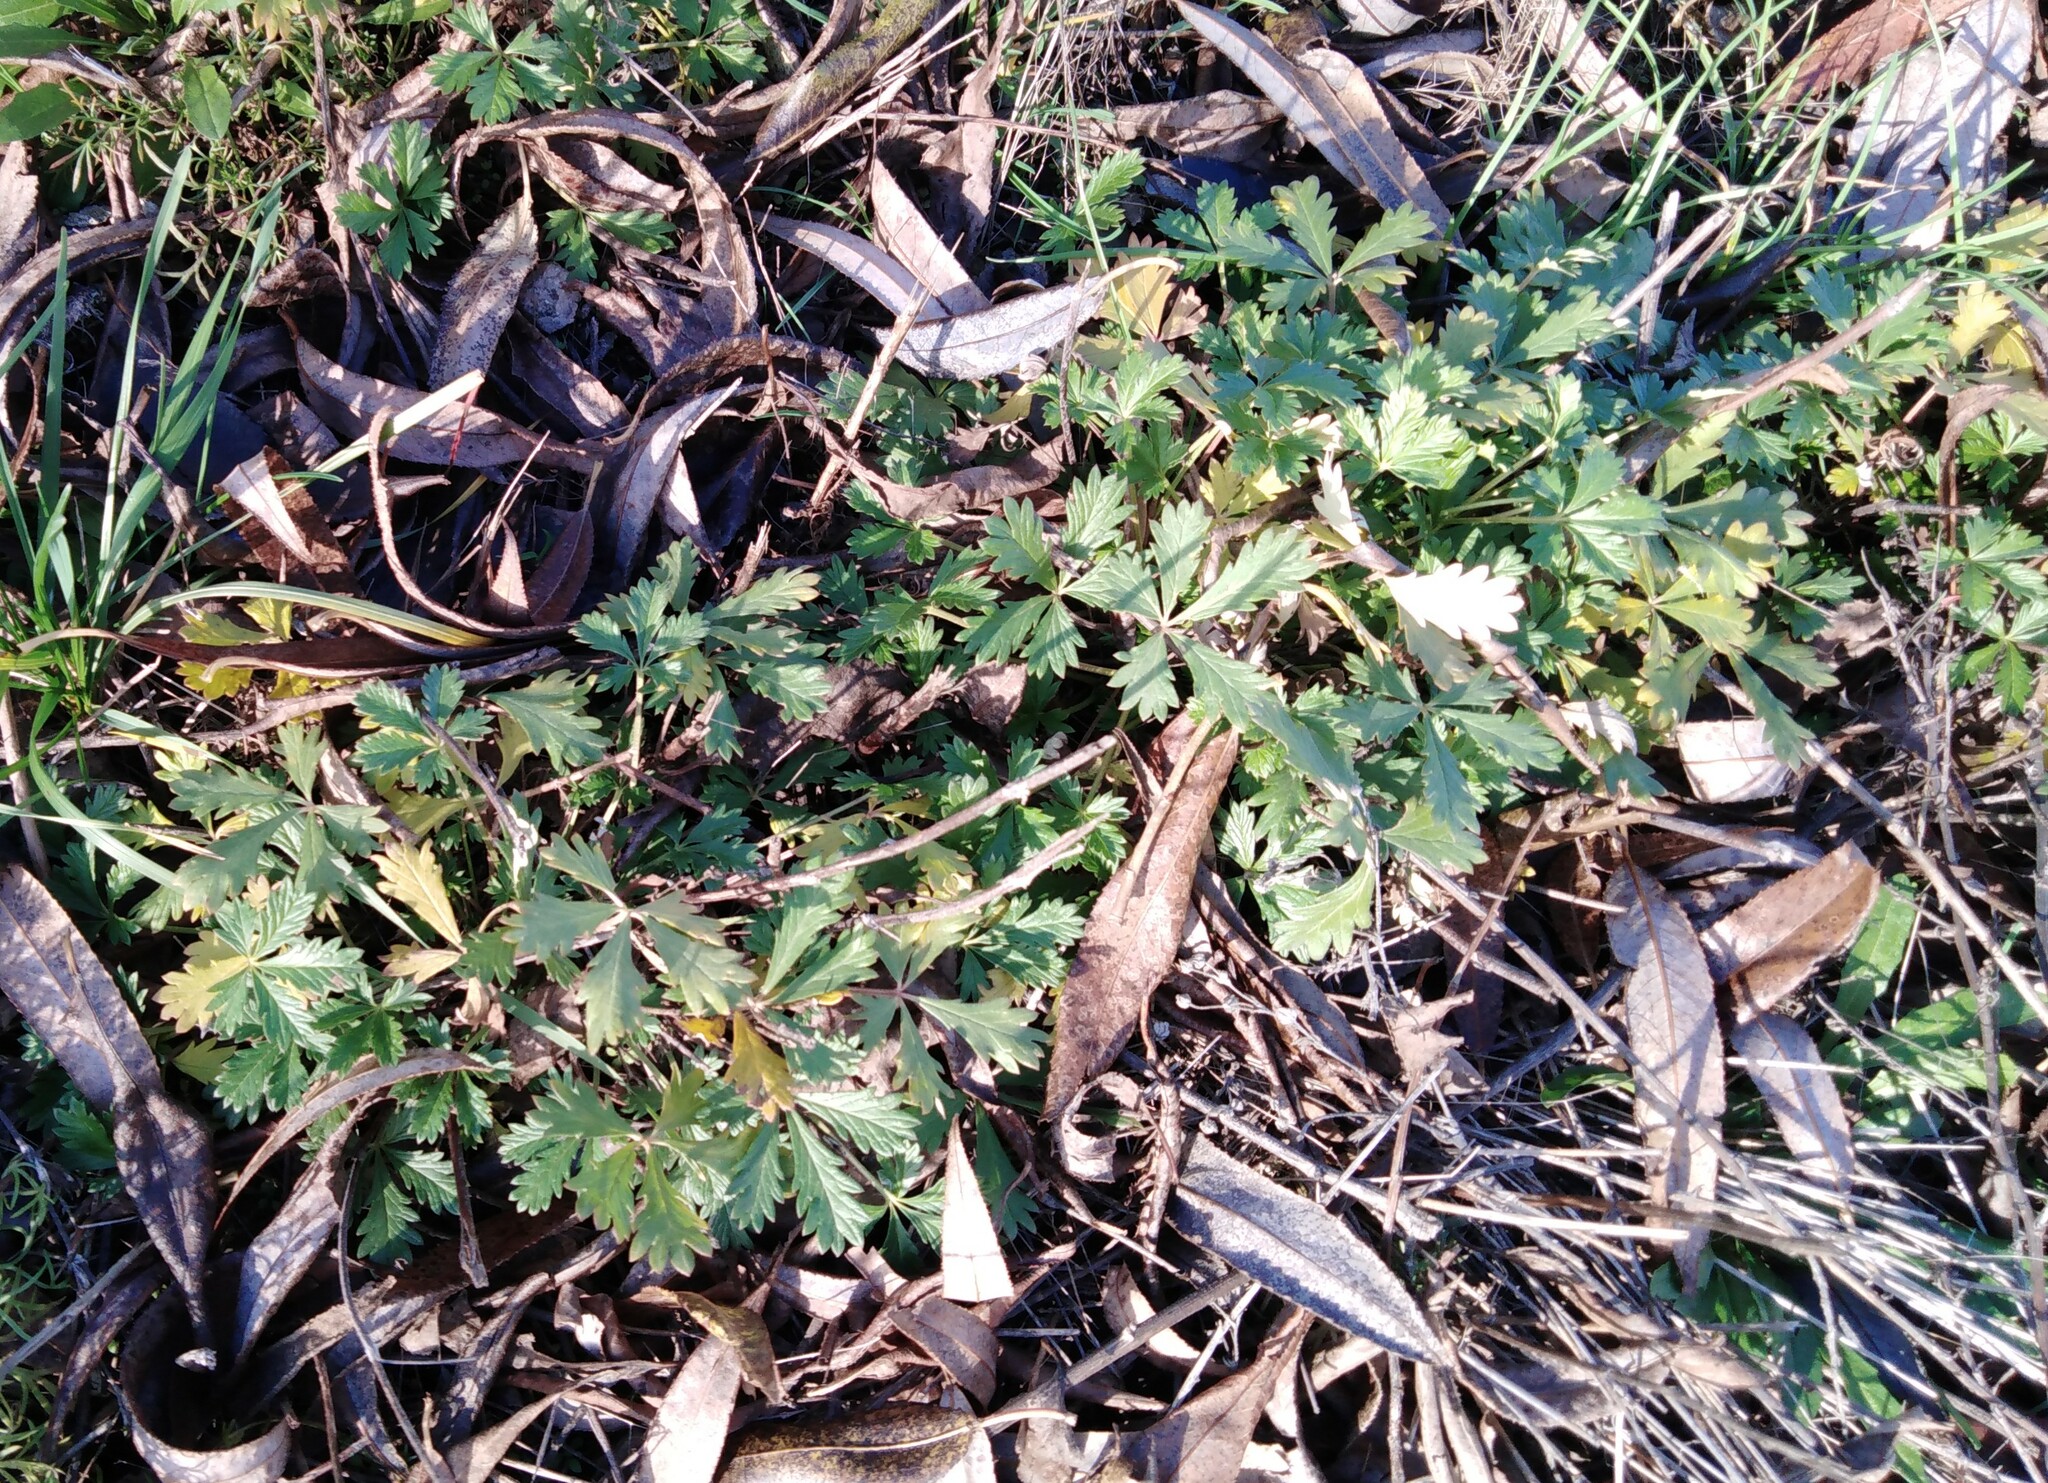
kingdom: Plantae
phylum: Tracheophyta
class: Magnoliopsida
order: Rosales
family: Rosaceae
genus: Potentilla
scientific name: Potentilla argentea
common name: Hoary cinquefoil
